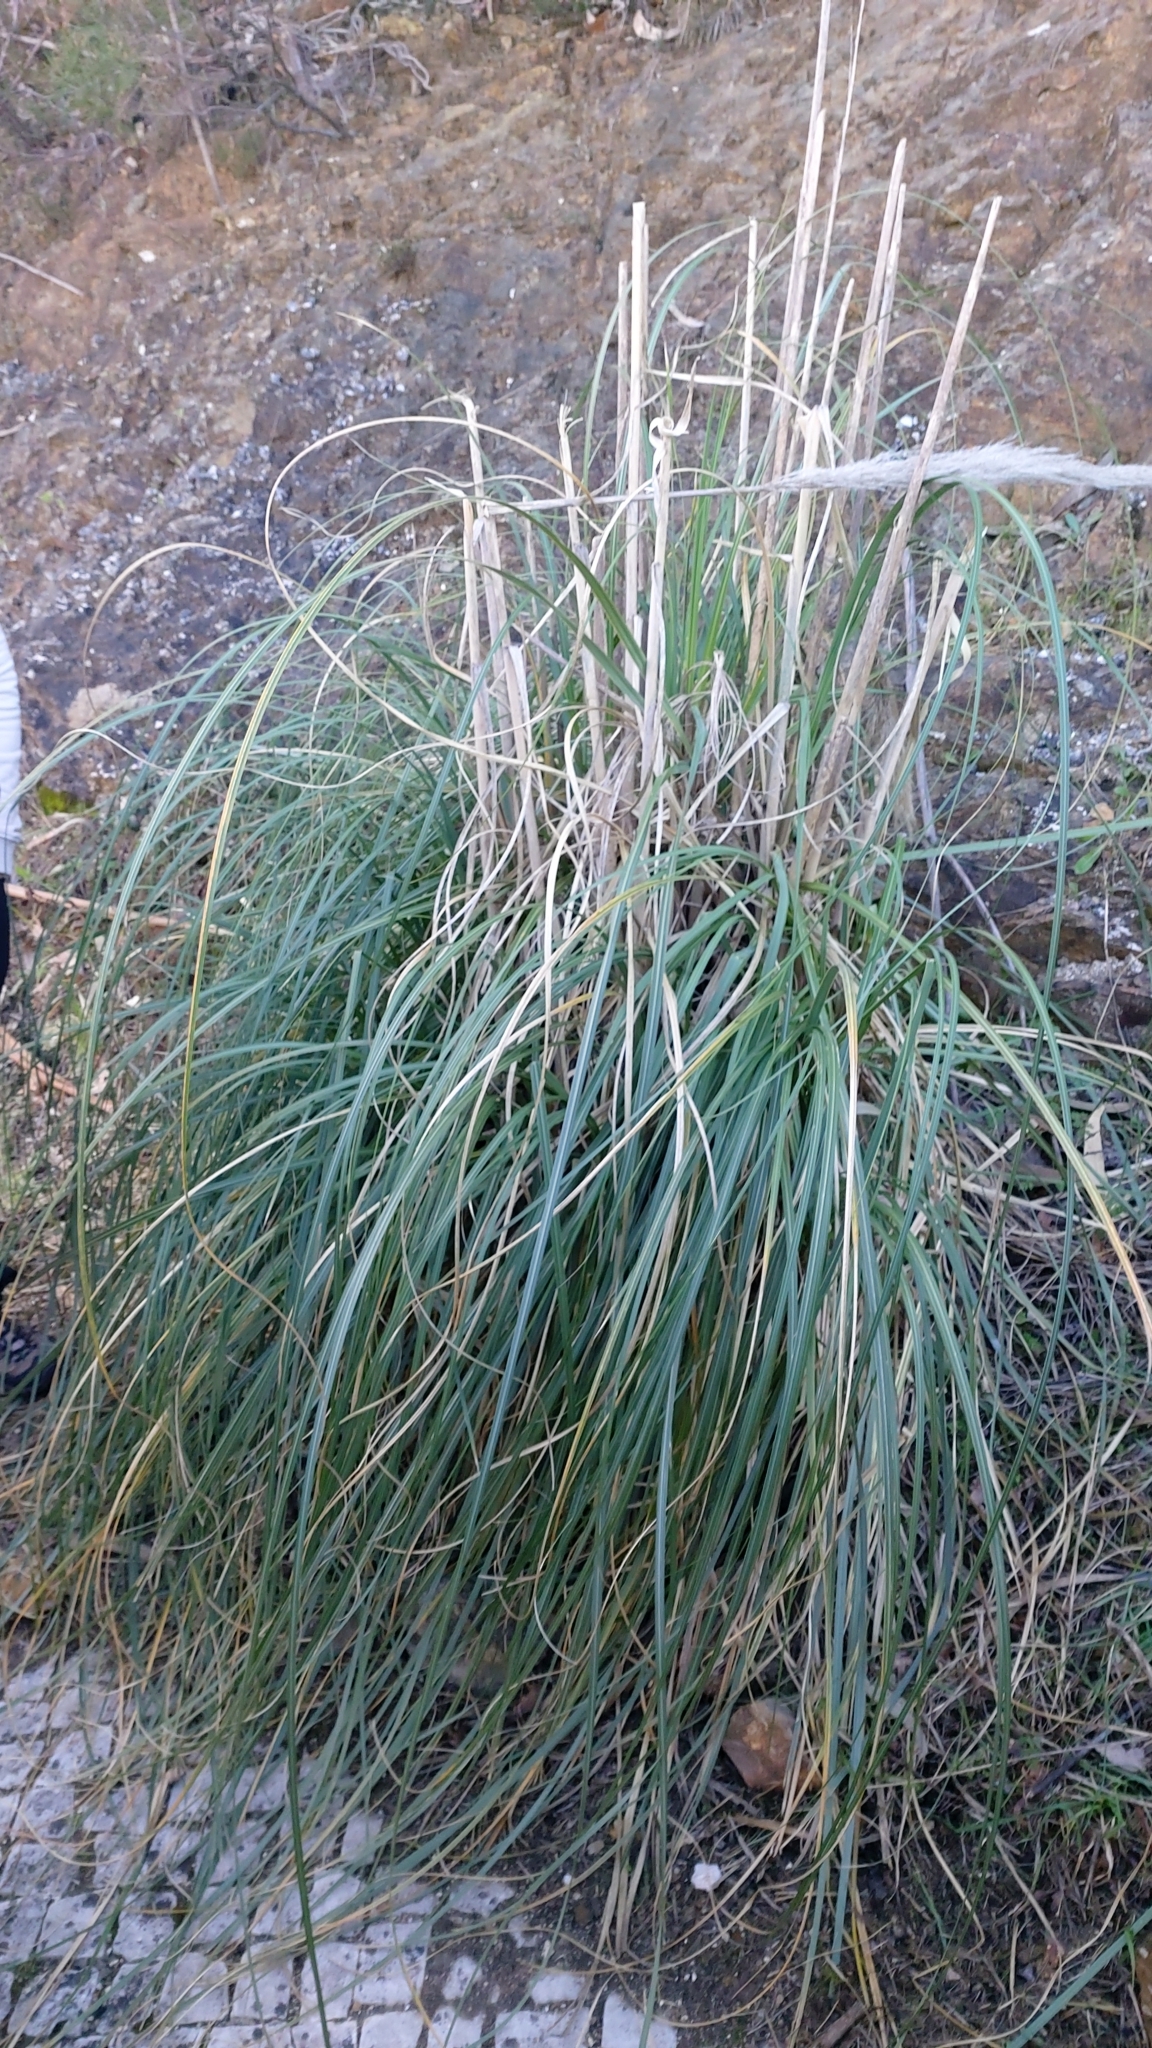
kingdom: Plantae
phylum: Tracheophyta
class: Liliopsida
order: Poales
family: Poaceae
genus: Cortaderia
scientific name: Cortaderia selloana
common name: Uruguayan pampas grass
